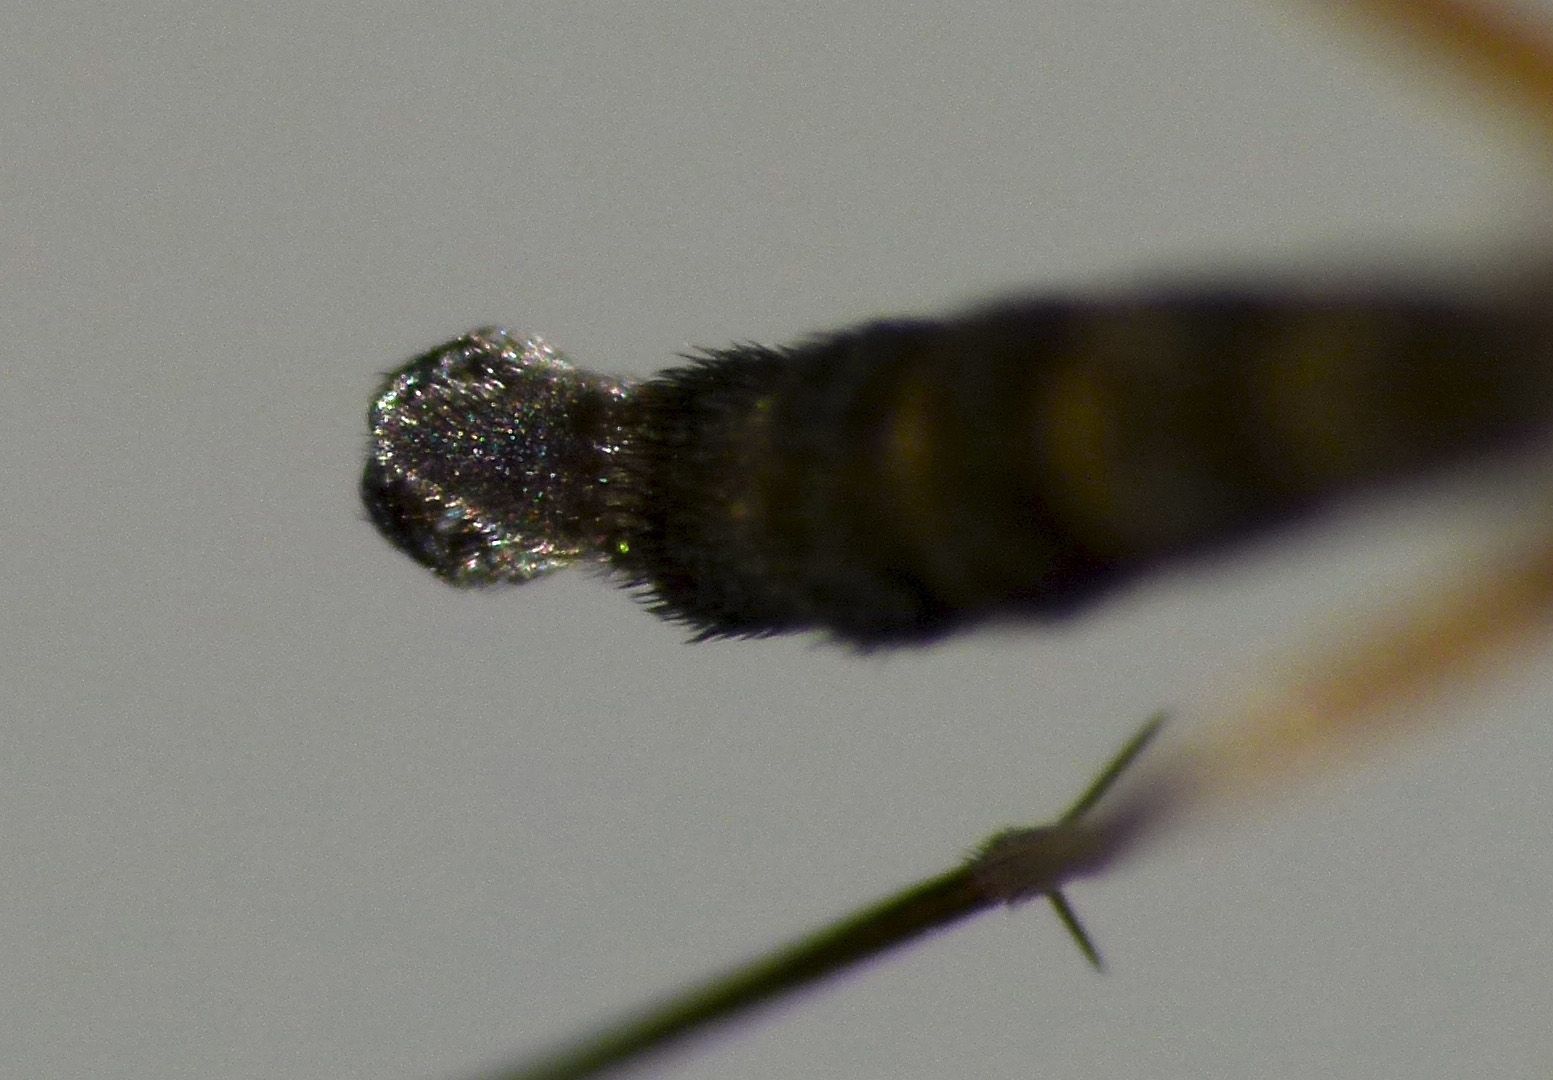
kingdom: Animalia
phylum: Arthropoda
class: Insecta
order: Diptera
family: Keroplatidae
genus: Orfelia
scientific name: Orfelia nemoralis
